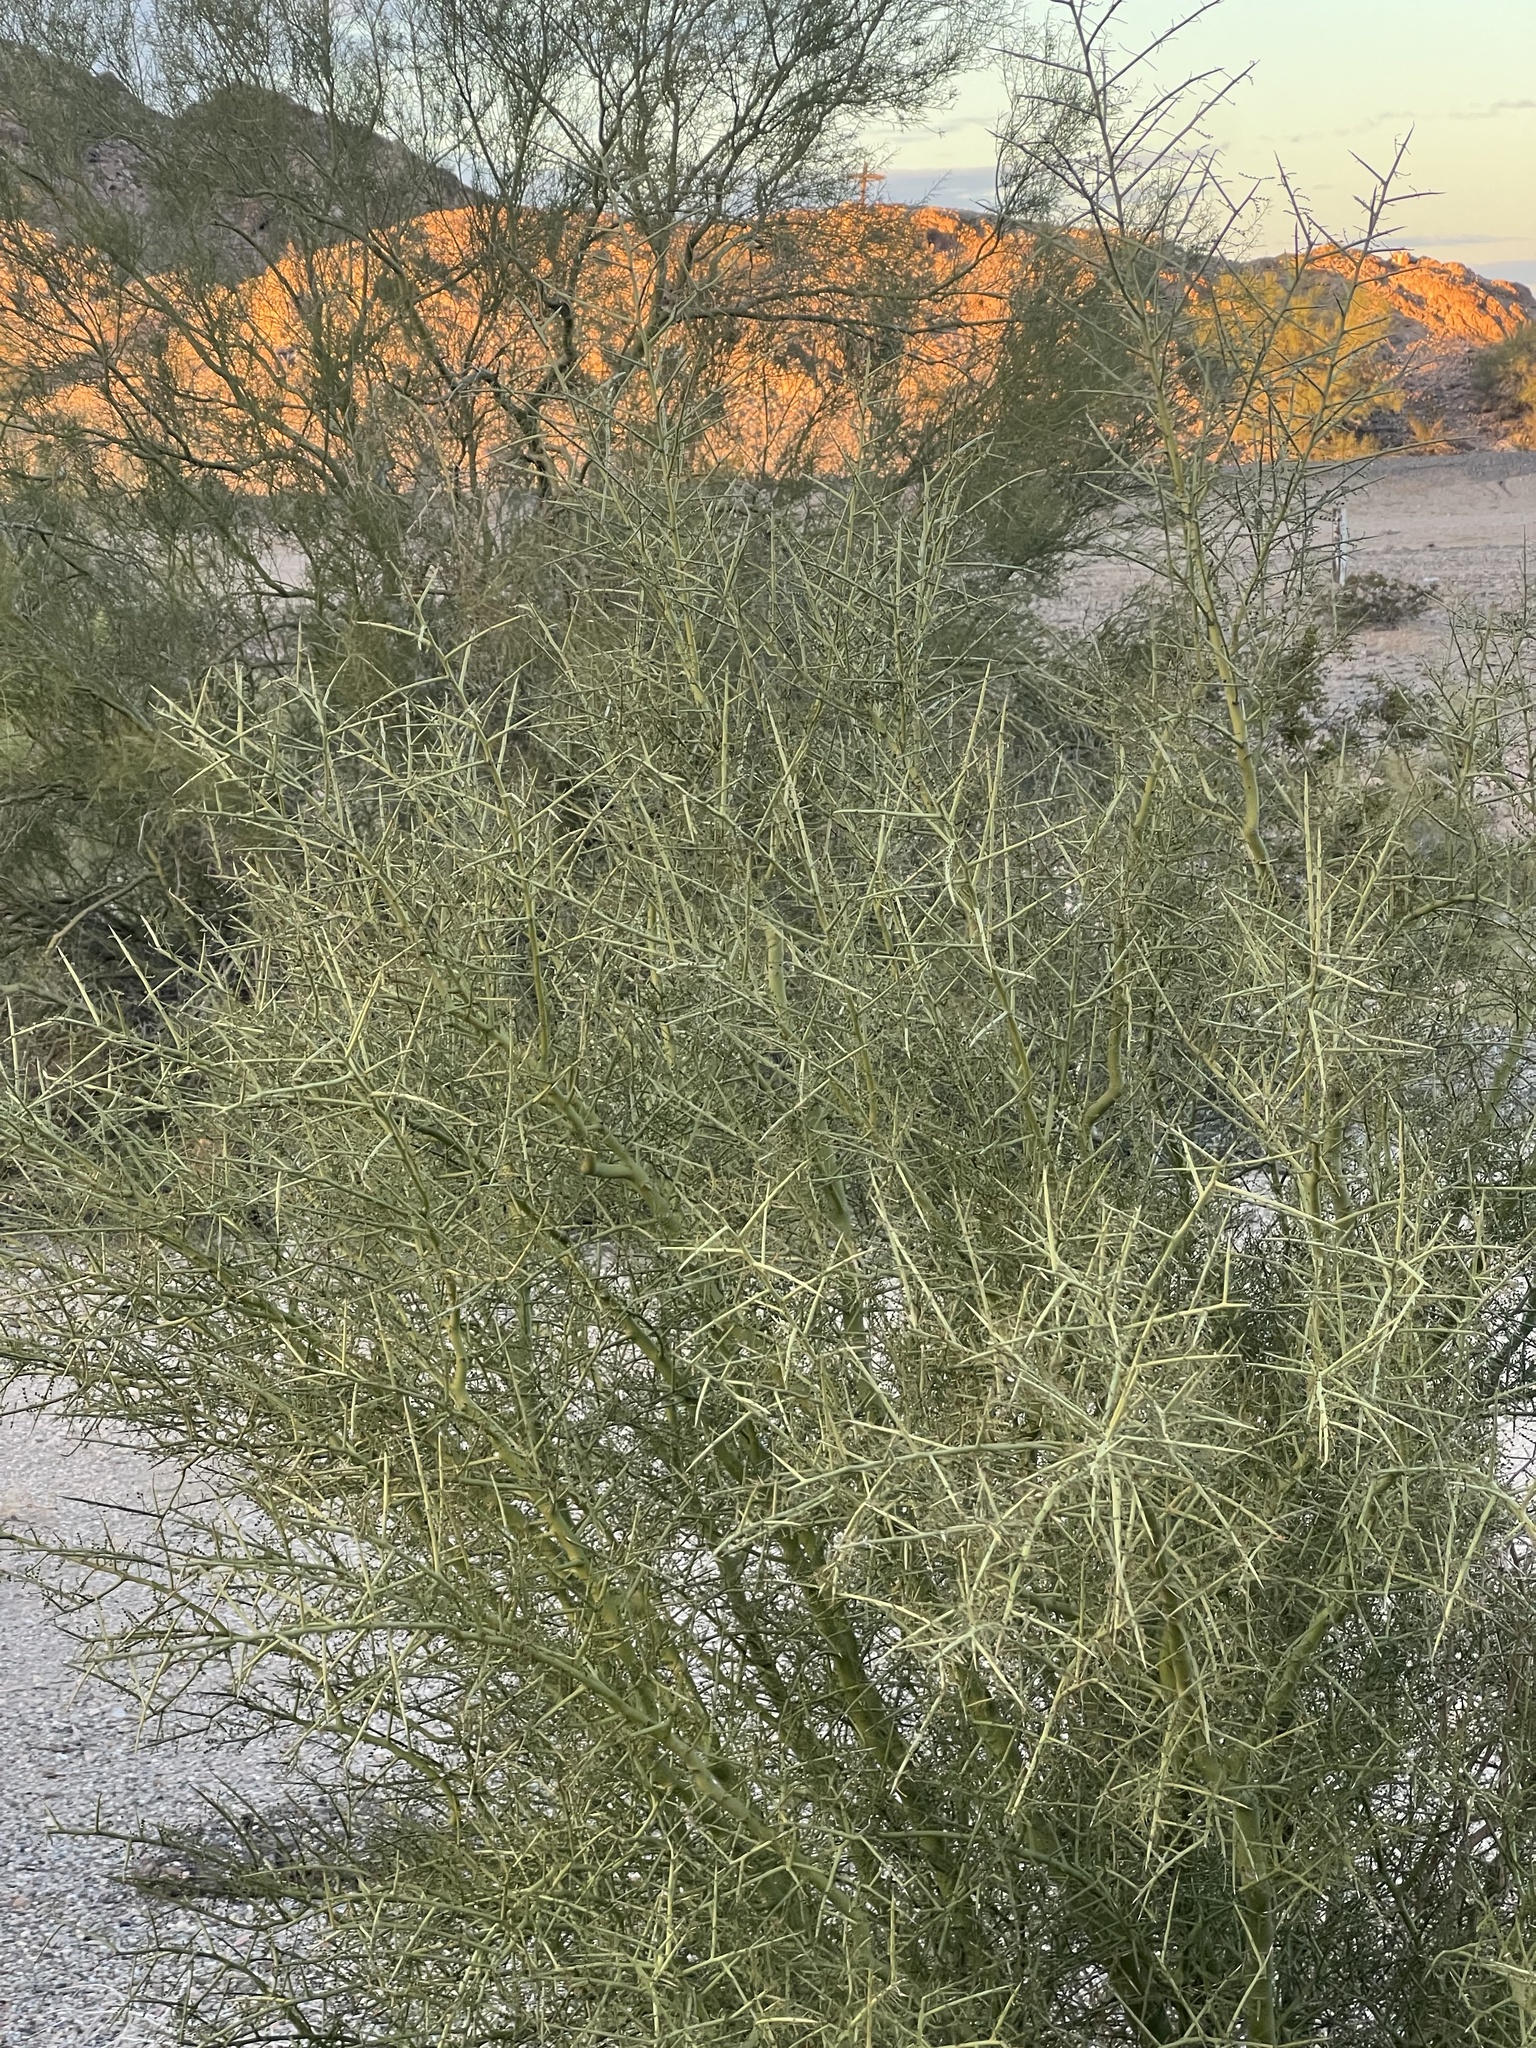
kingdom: Plantae
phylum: Tracheophyta
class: Magnoliopsida
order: Fabales
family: Fabaceae
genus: Parkinsonia
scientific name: Parkinsonia microphylla
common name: Yellow paloverde
